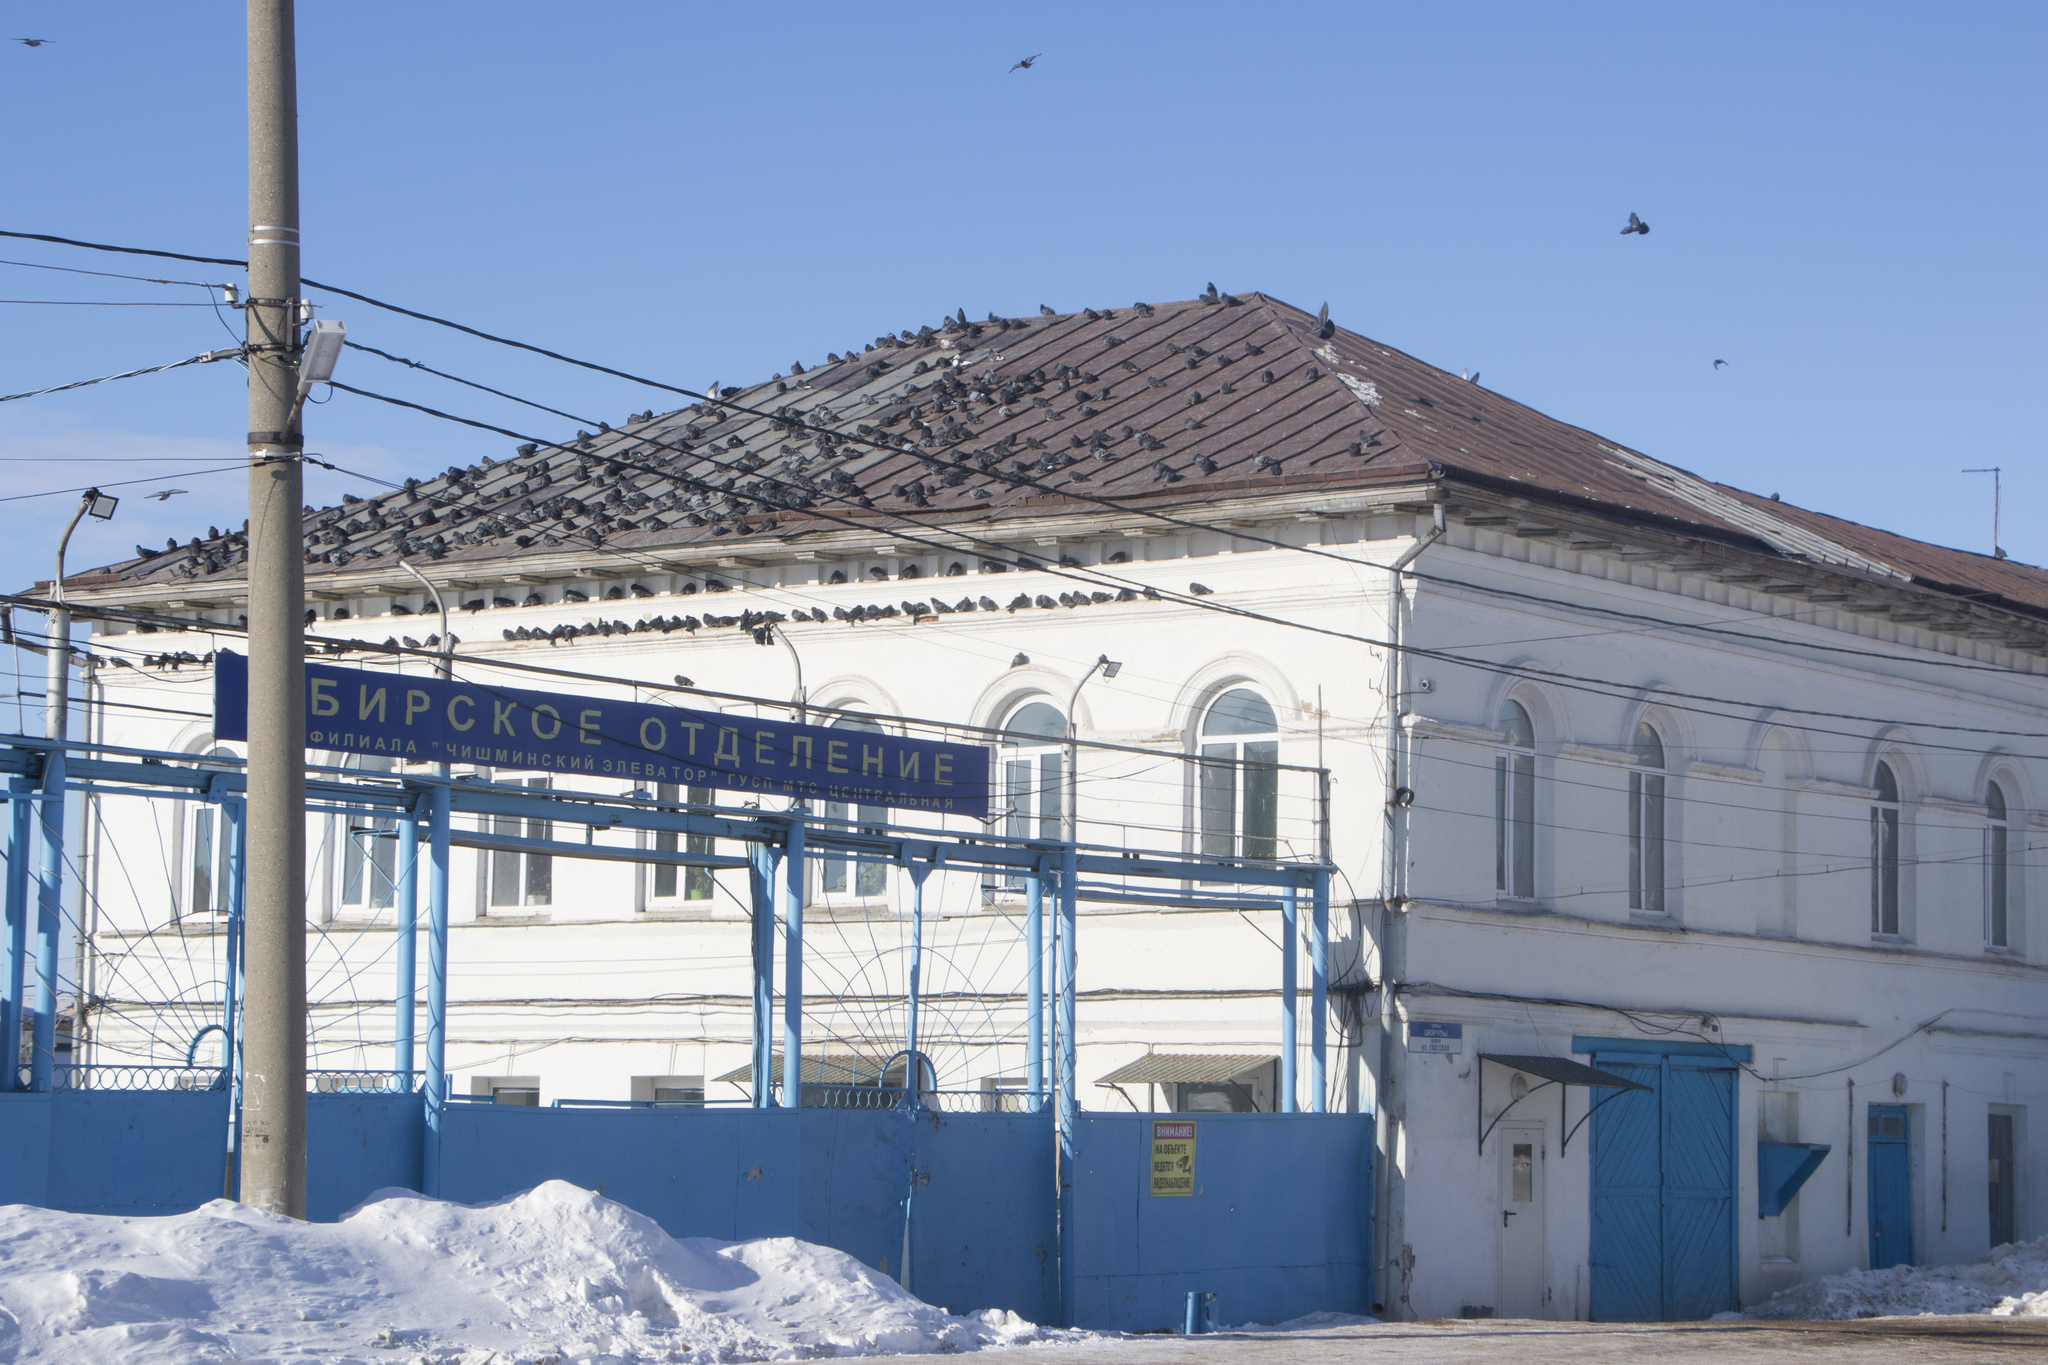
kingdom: Animalia
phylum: Chordata
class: Aves
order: Columbiformes
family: Columbidae
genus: Columba
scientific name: Columba livia
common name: Rock pigeon
